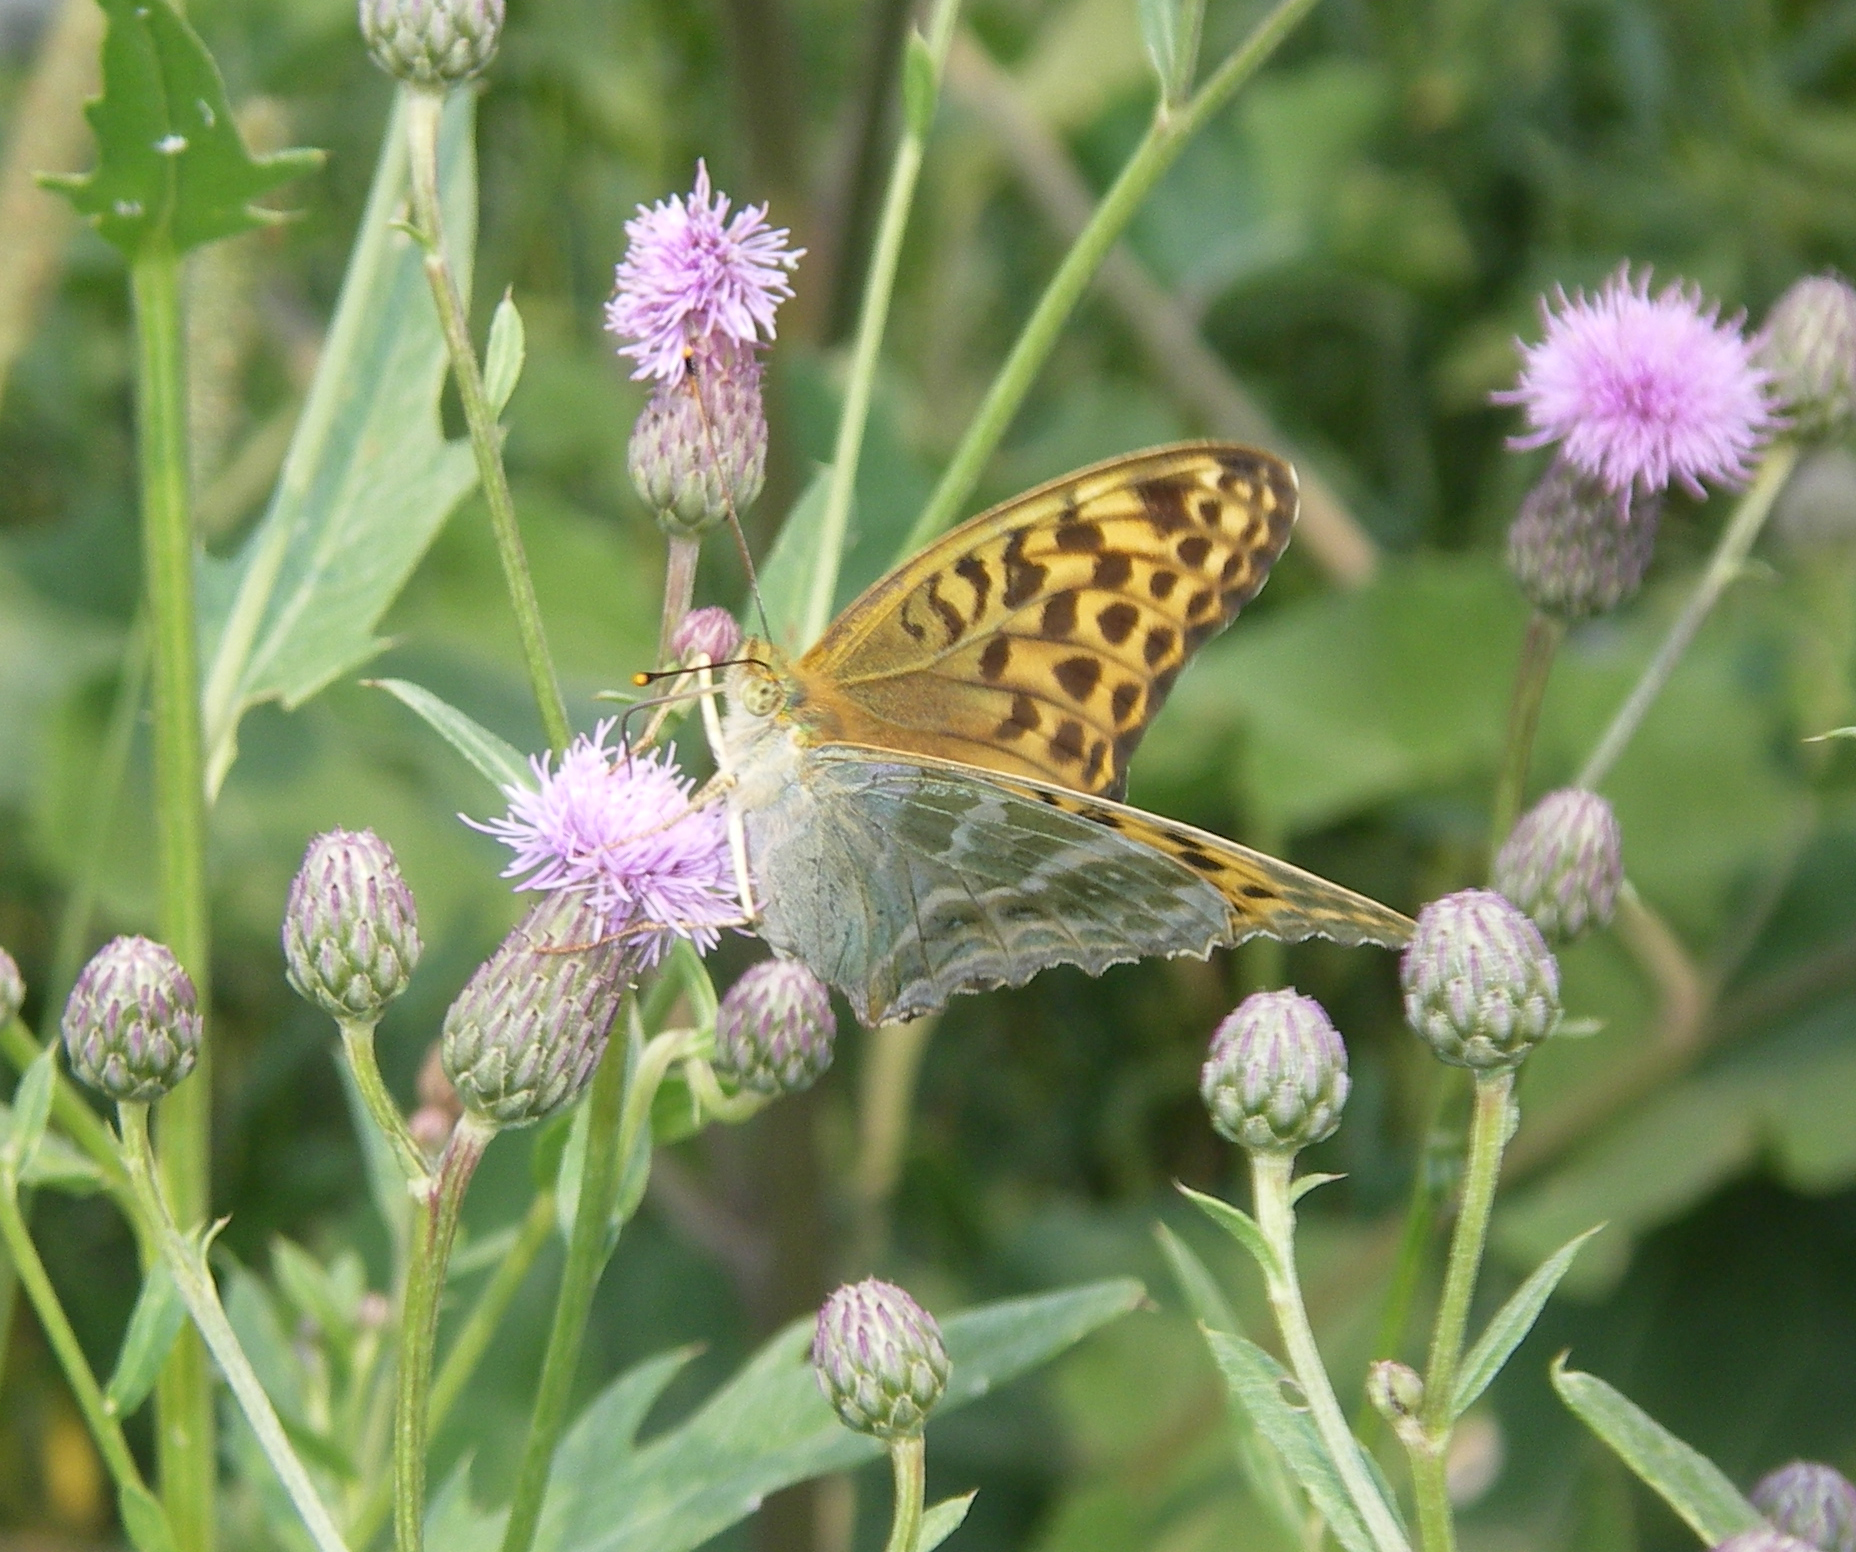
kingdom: Animalia
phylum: Arthropoda
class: Insecta
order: Lepidoptera
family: Nymphalidae
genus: Argynnis
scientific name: Argynnis paphia
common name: Silver-washed fritillary
